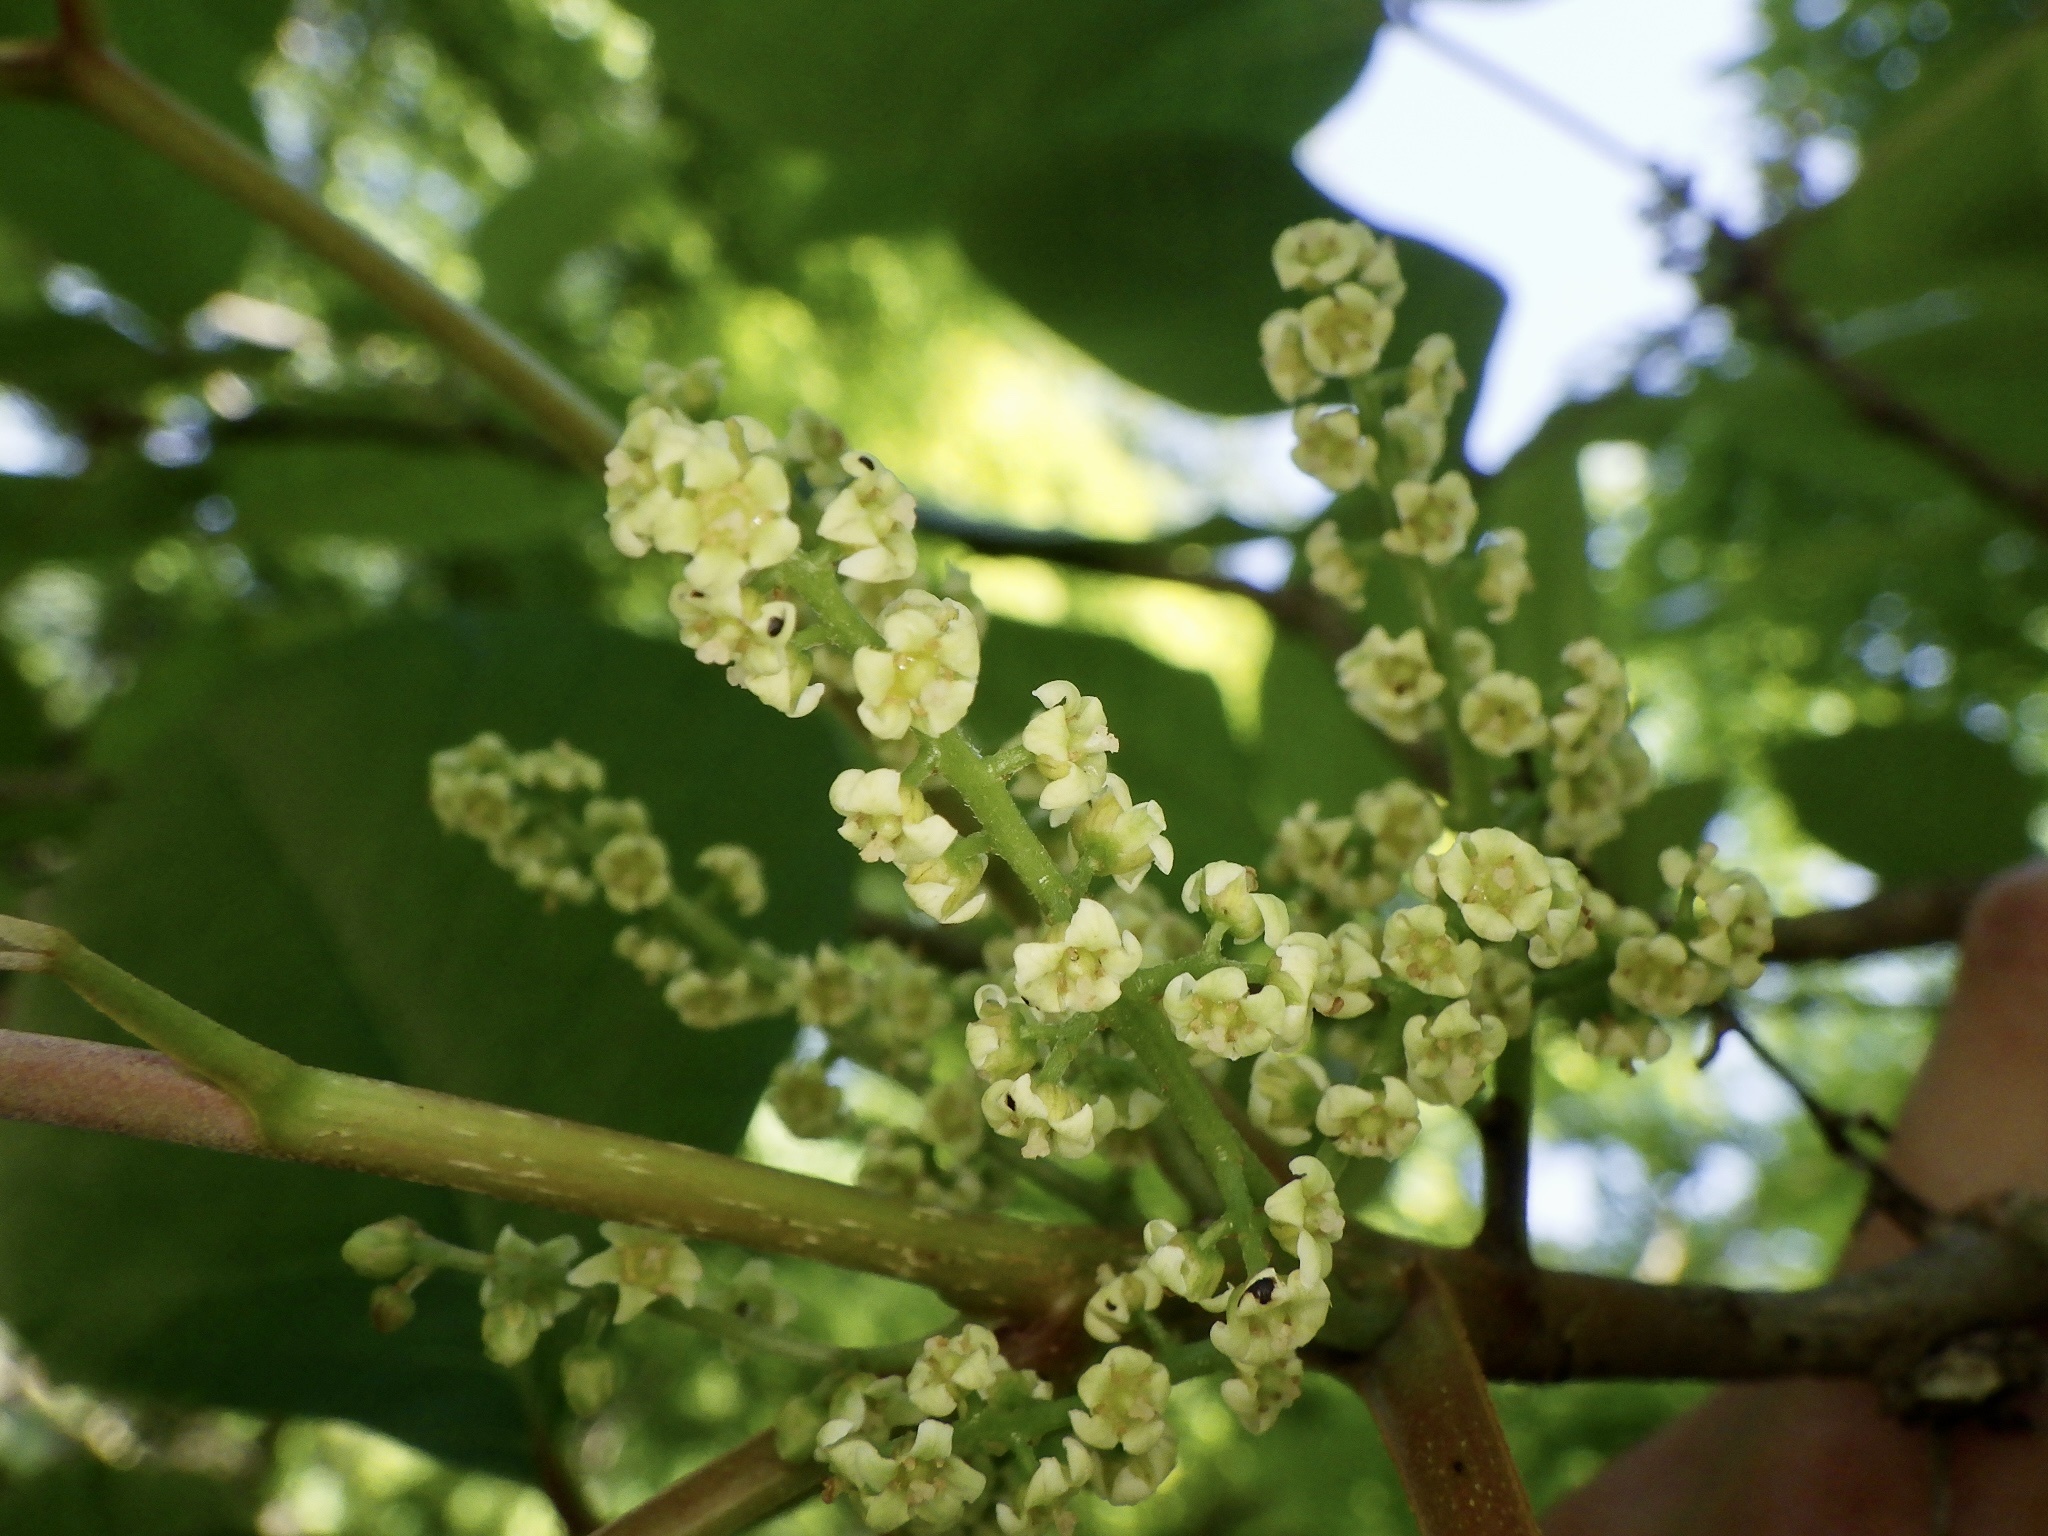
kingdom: Plantae
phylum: Tracheophyta
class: Magnoliopsida
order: Sapindales
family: Anacardiaceae
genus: Toxicodendron
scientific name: Toxicodendron orientale
